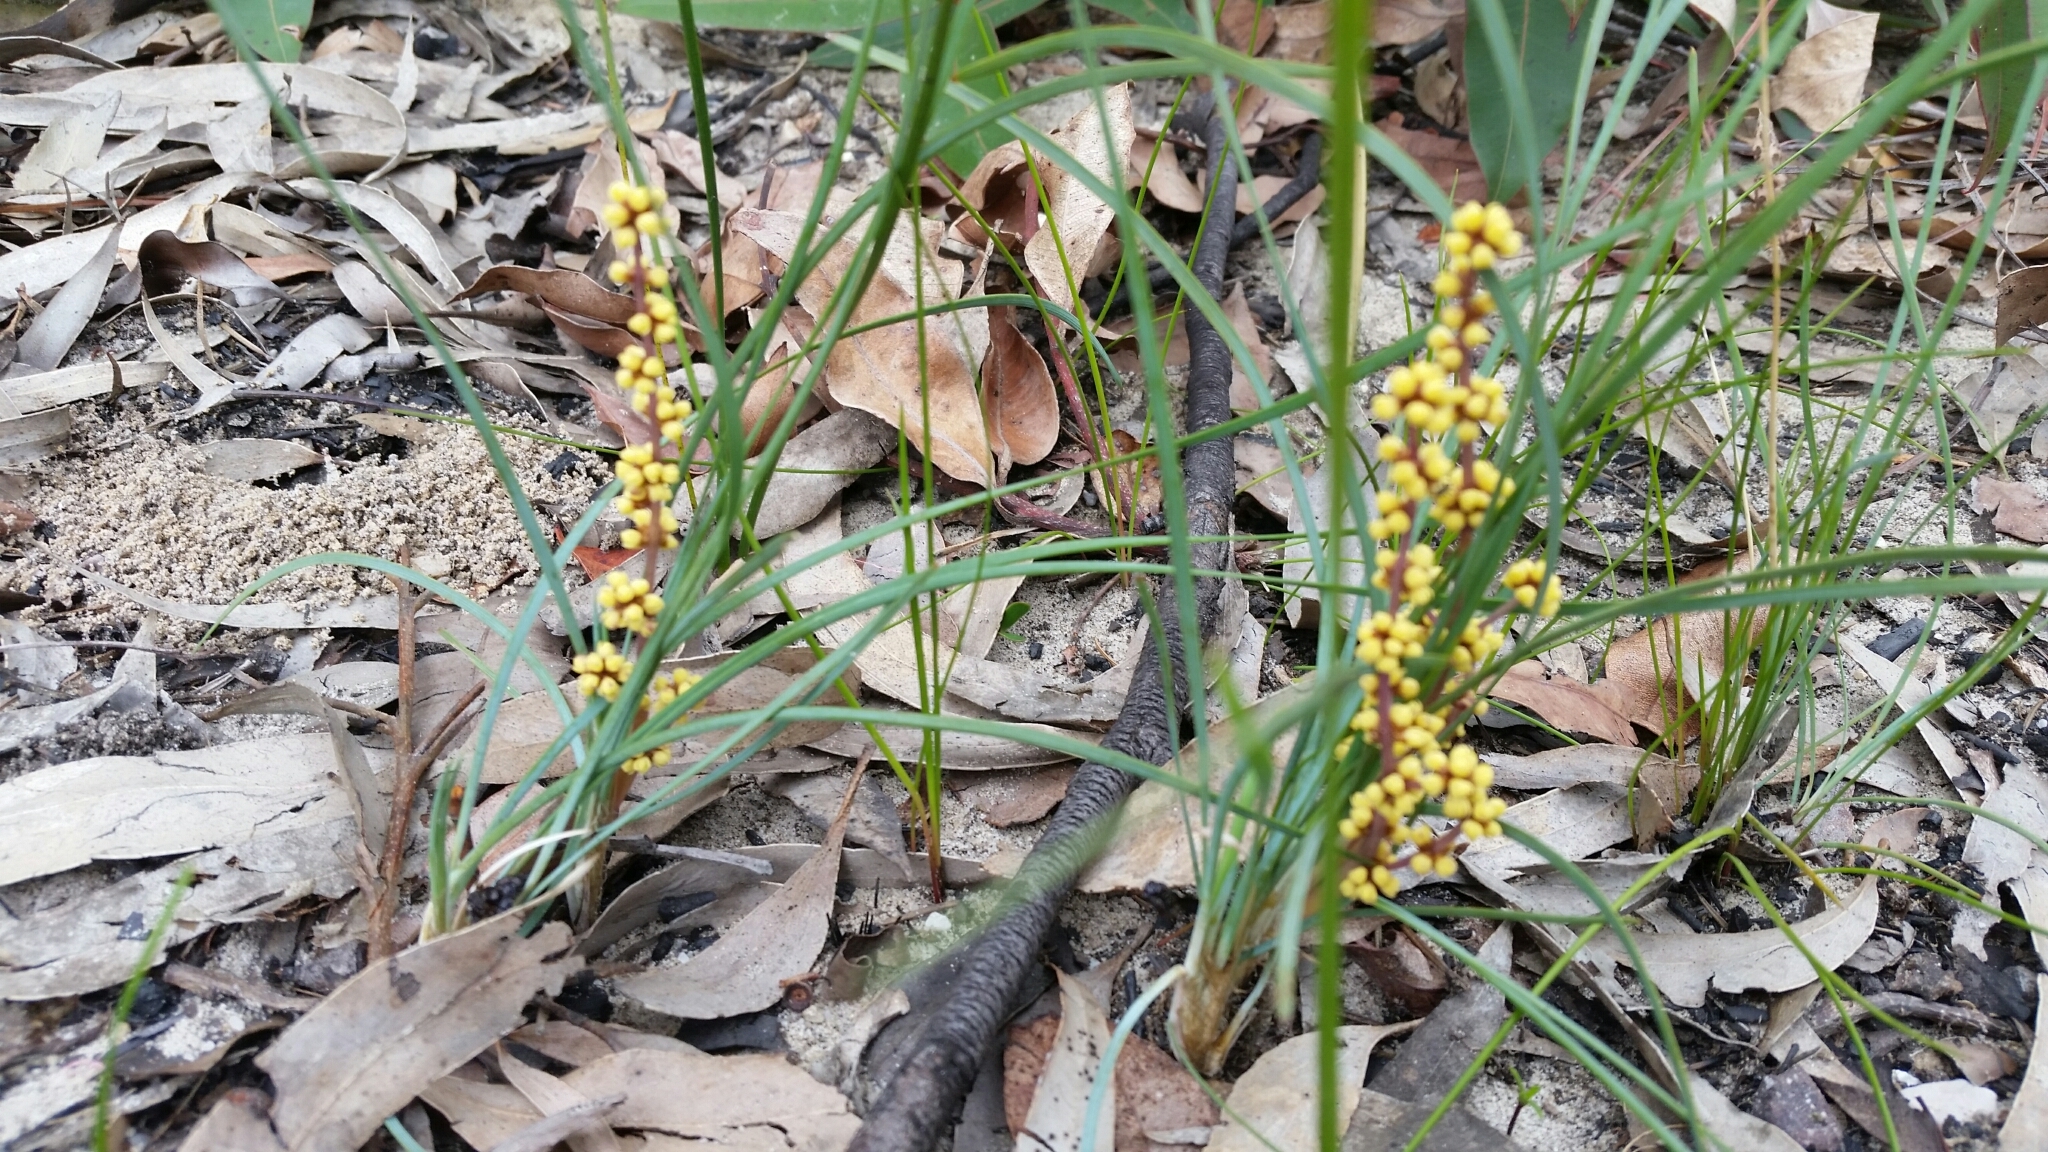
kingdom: Plantae
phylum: Tracheophyta
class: Liliopsida
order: Asparagales
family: Asparagaceae
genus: Lomandra
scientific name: Lomandra filiformis
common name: Wattle mat-rush
